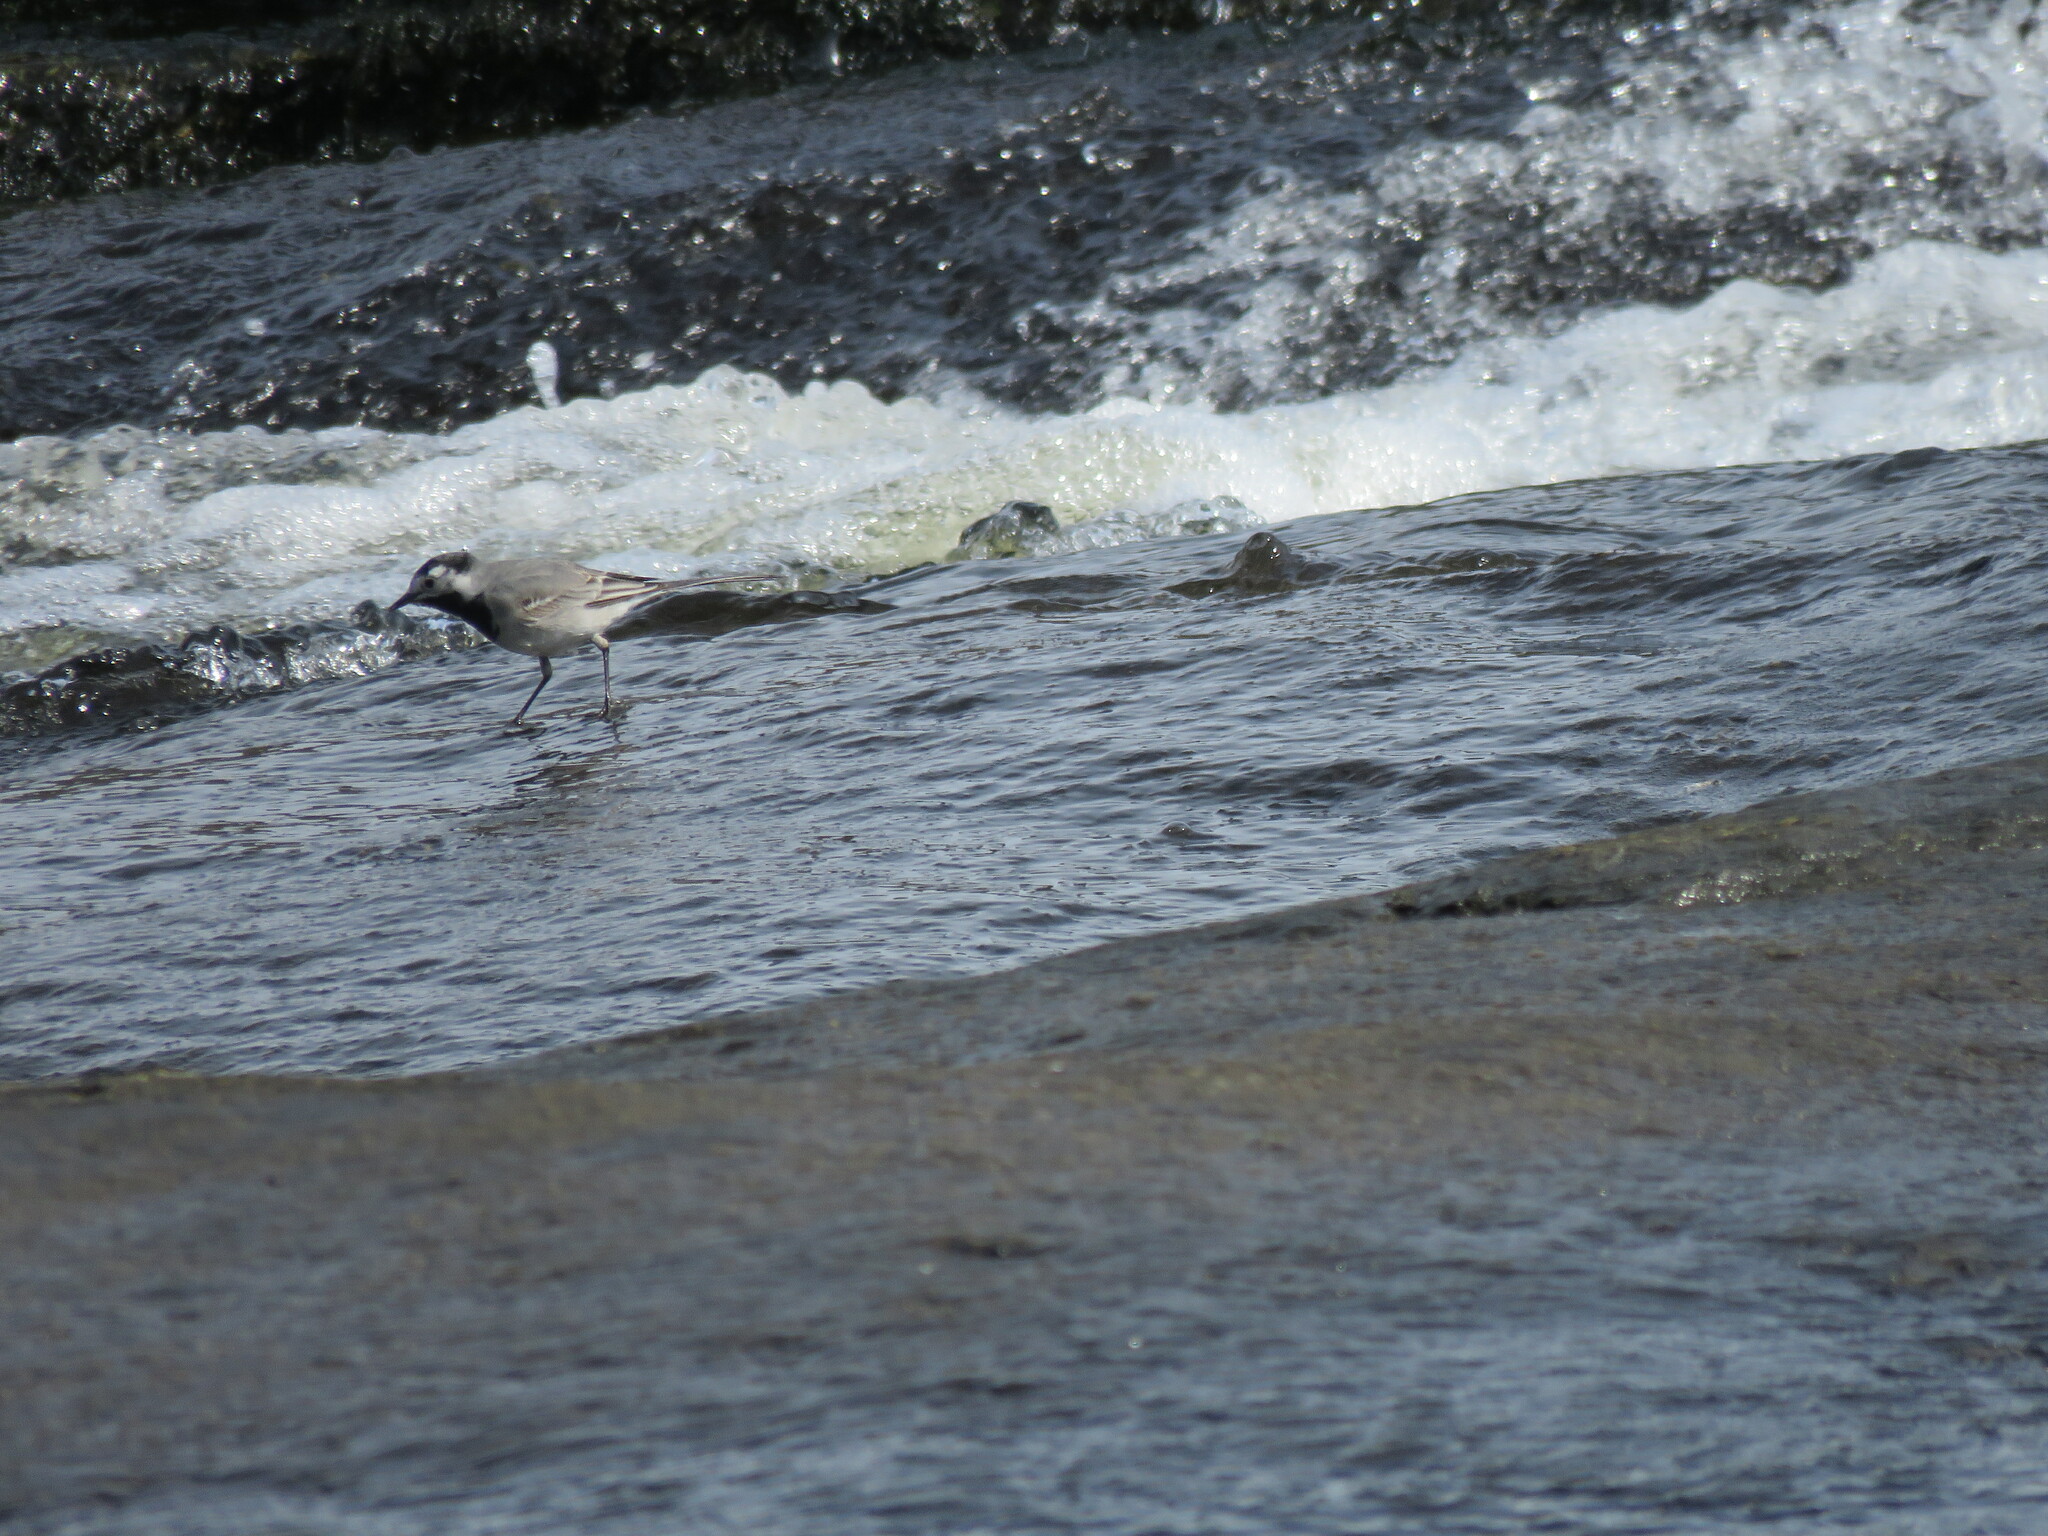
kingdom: Animalia
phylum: Chordata
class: Aves
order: Passeriformes
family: Motacillidae
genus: Motacilla
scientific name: Motacilla alba
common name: White wagtail
